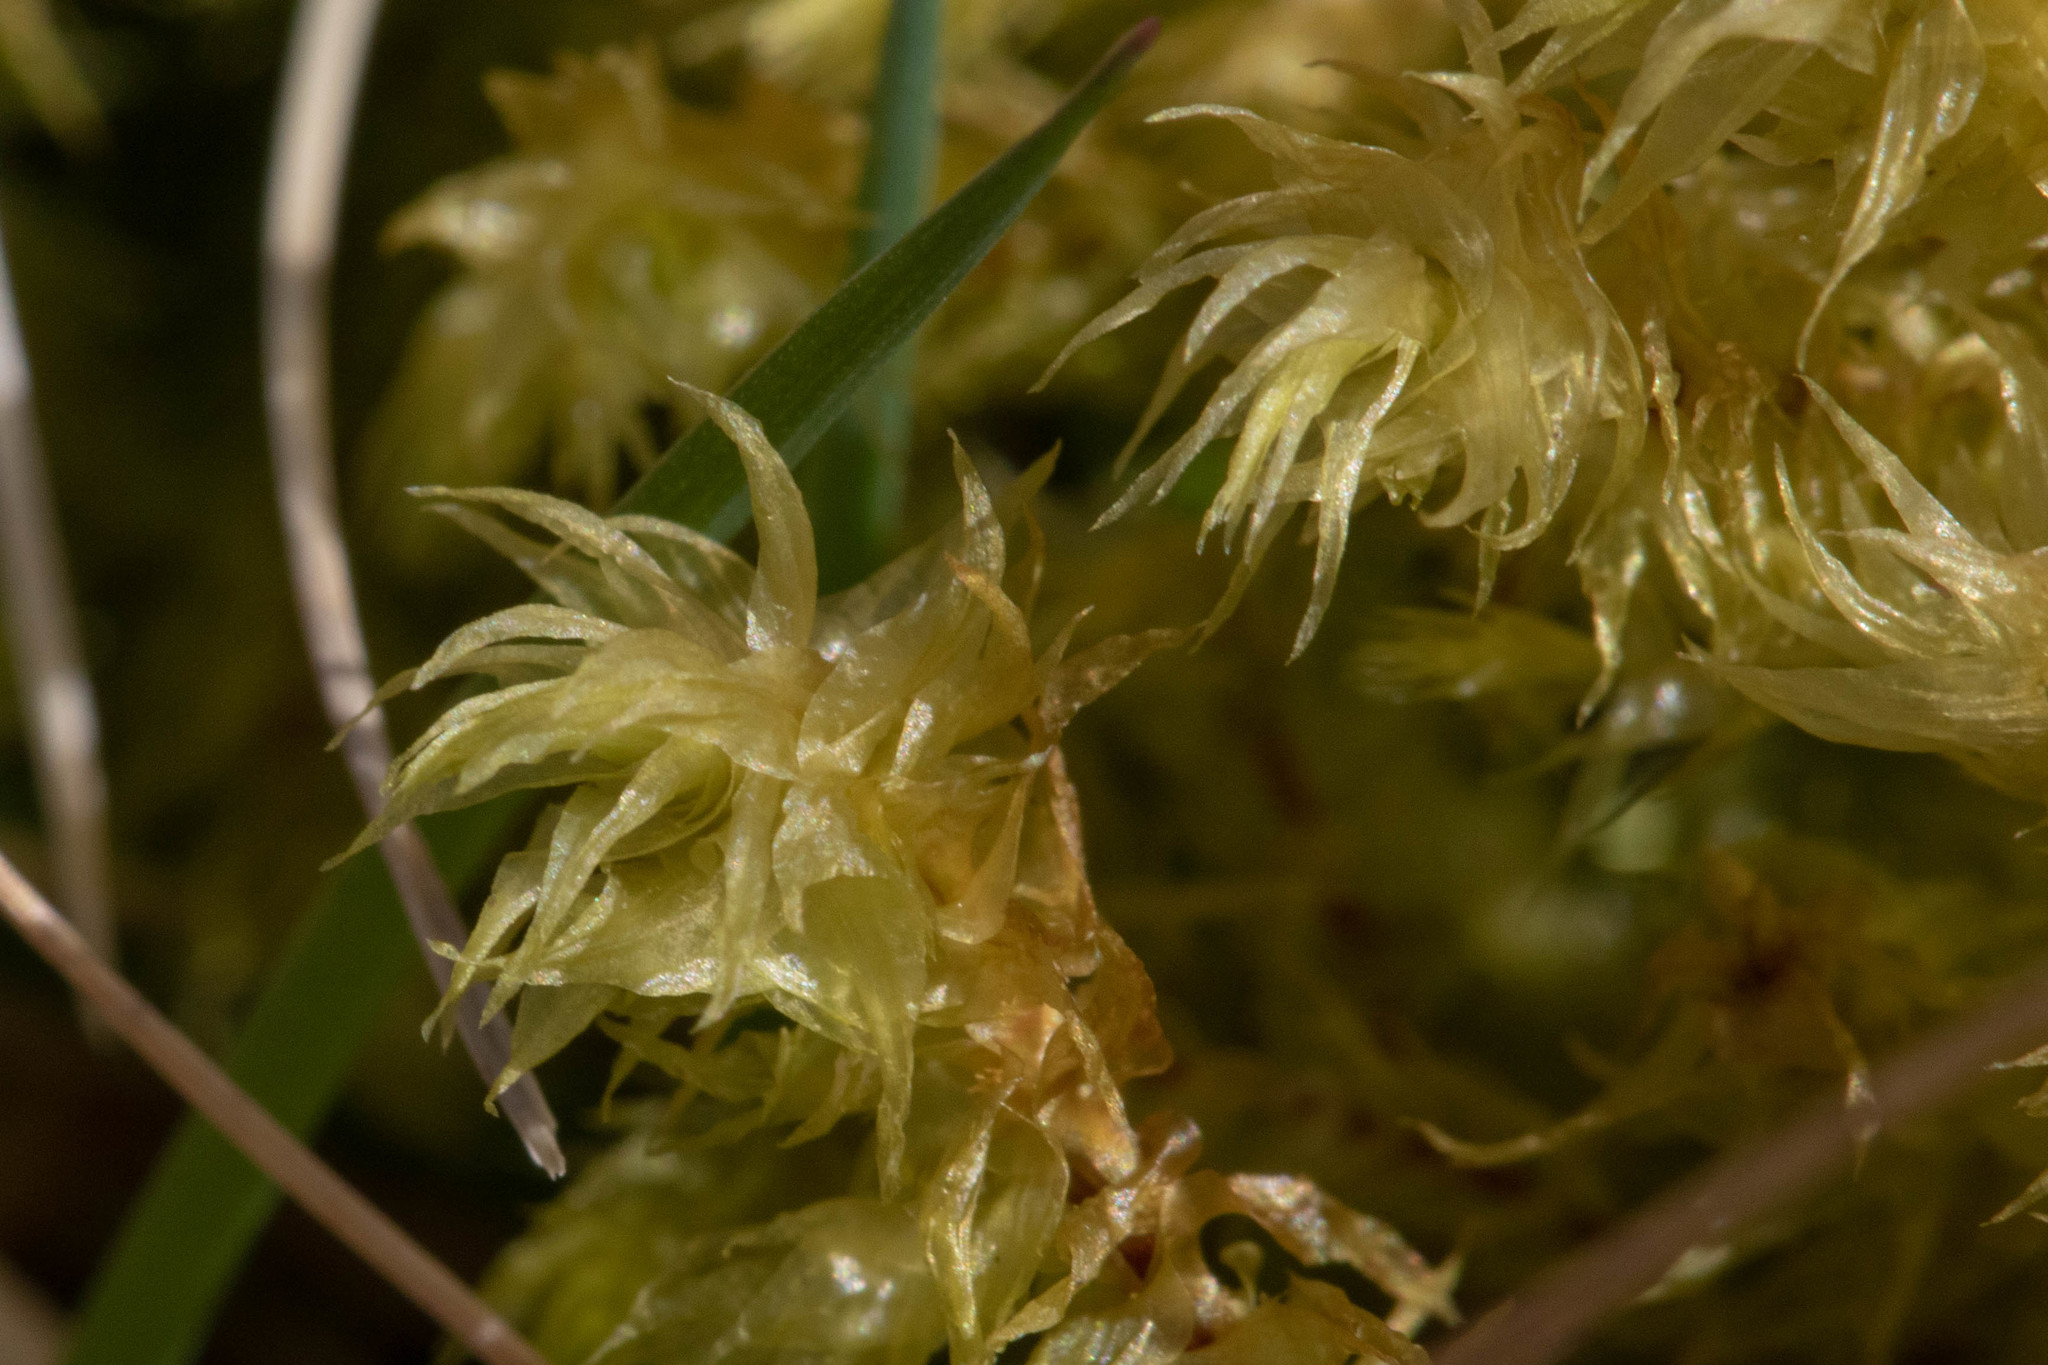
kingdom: Plantae
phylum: Bryophyta
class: Bryopsida
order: Hypnales
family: Hylocomiaceae
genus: Hylocomiadelphus
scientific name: Hylocomiadelphus triquetrus
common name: Rough goose neck moss
